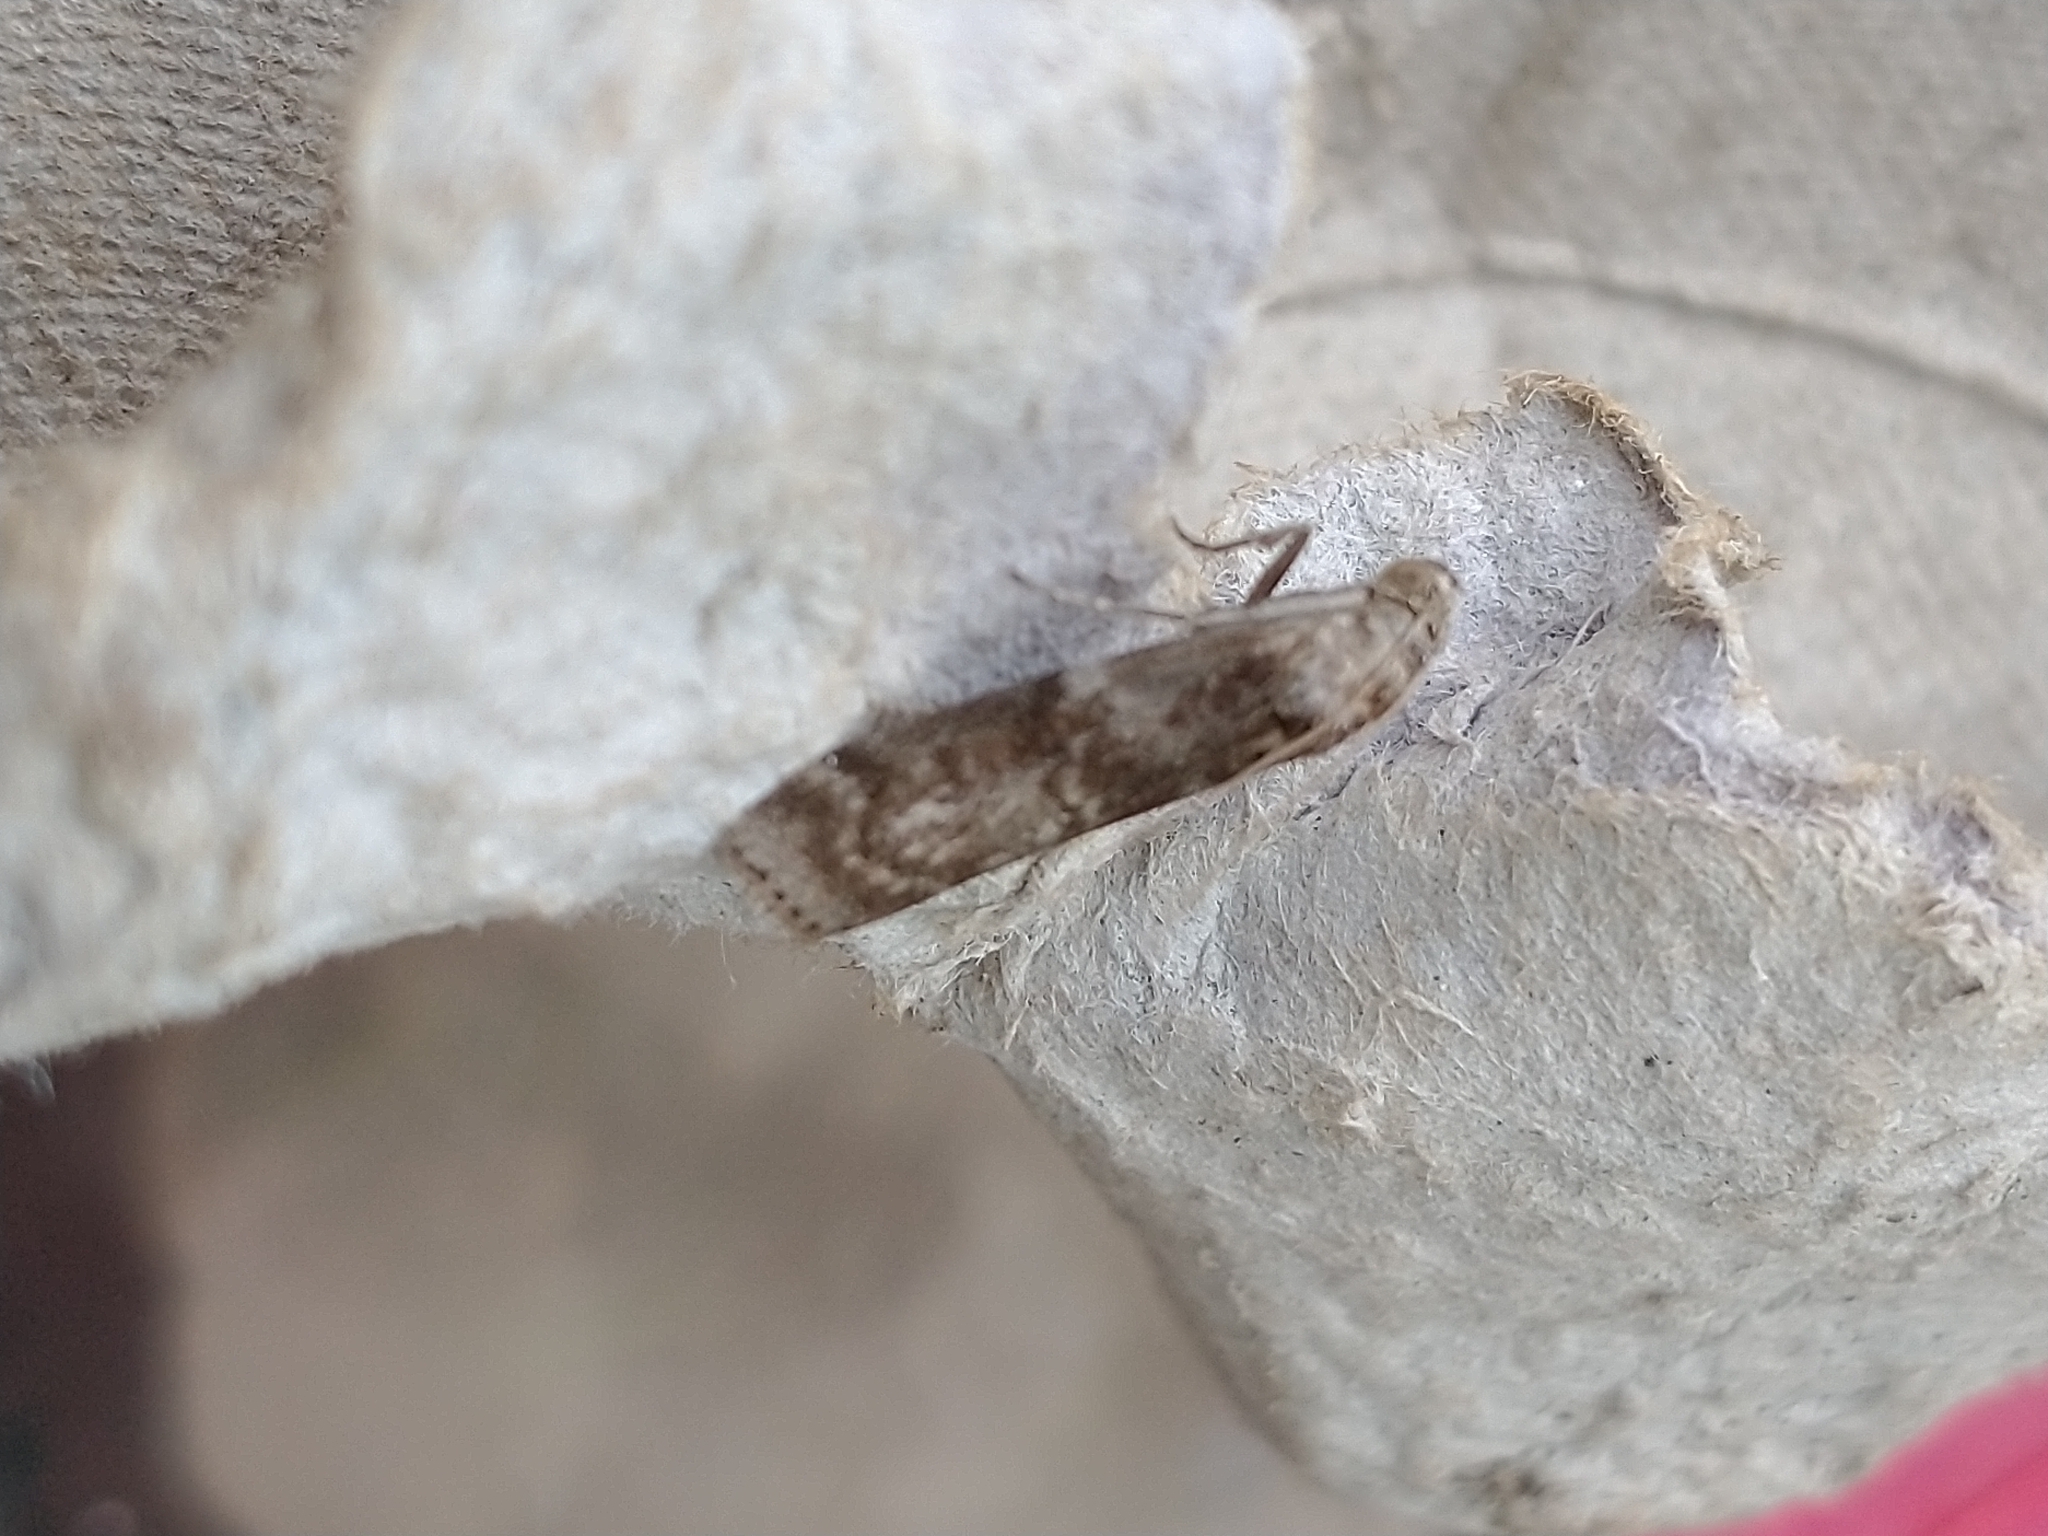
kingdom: Animalia
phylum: Arthropoda
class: Insecta
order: Lepidoptera
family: Pyralidae
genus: Phycita
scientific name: Phycita roborella
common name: Dotted oak knot-horn
